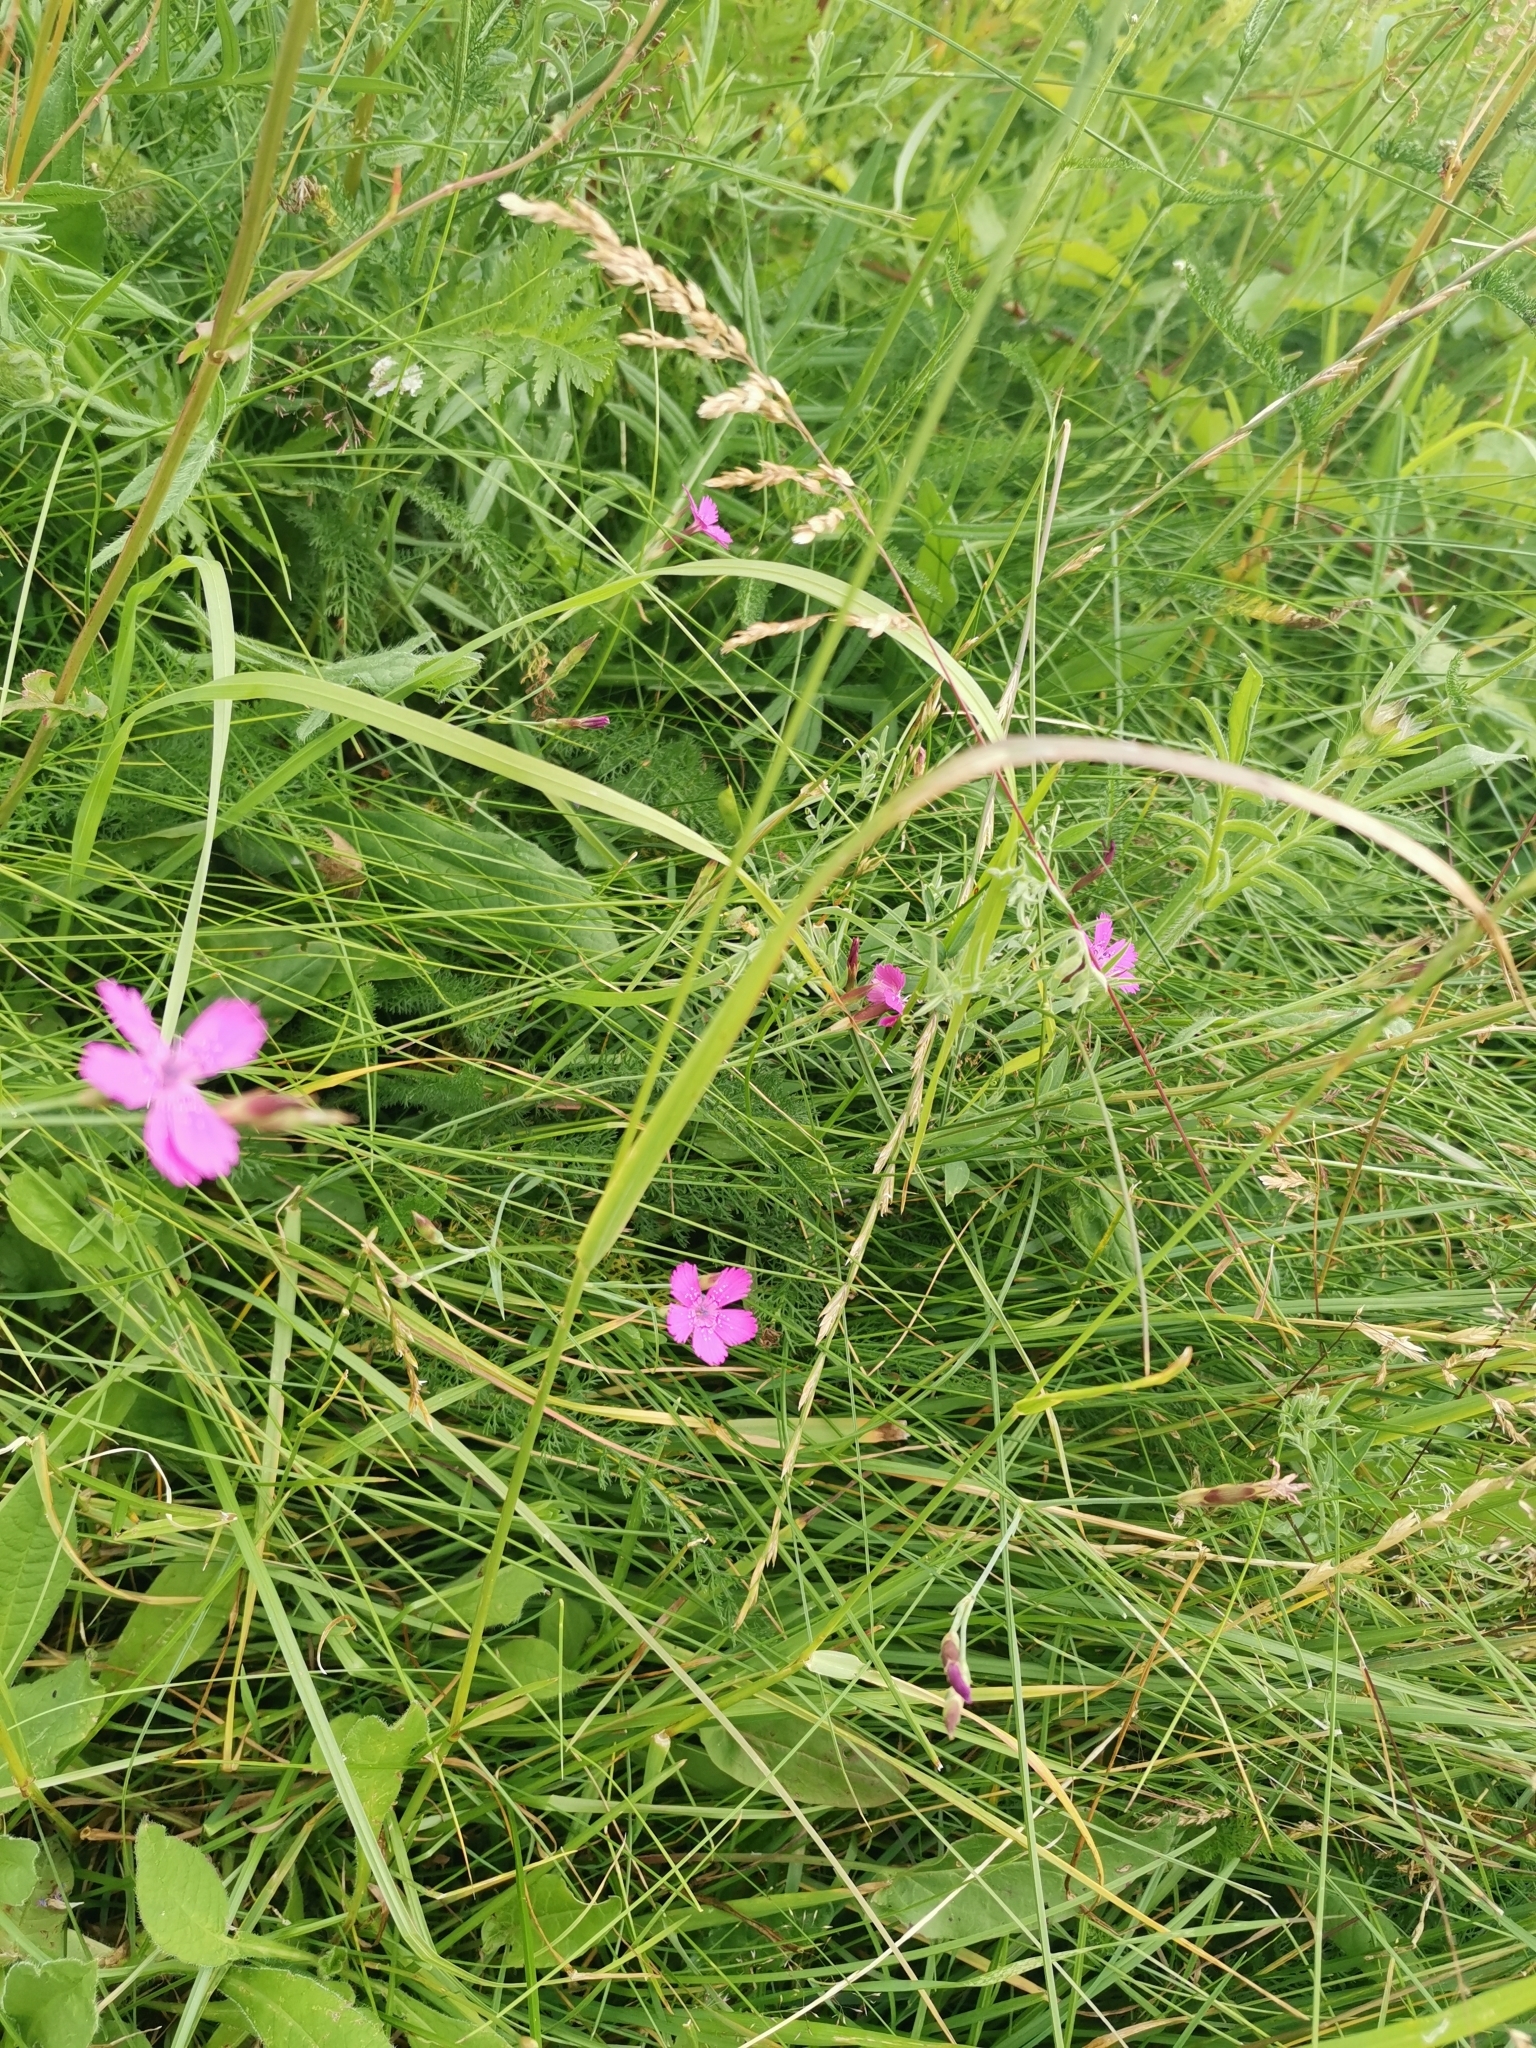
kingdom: Plantae
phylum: Tracheophyta
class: Magnoliopsida
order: Caryophyllales
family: Caryophyllaceae
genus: Dianthus
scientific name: Dianthus deltoides
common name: Maiden pink
